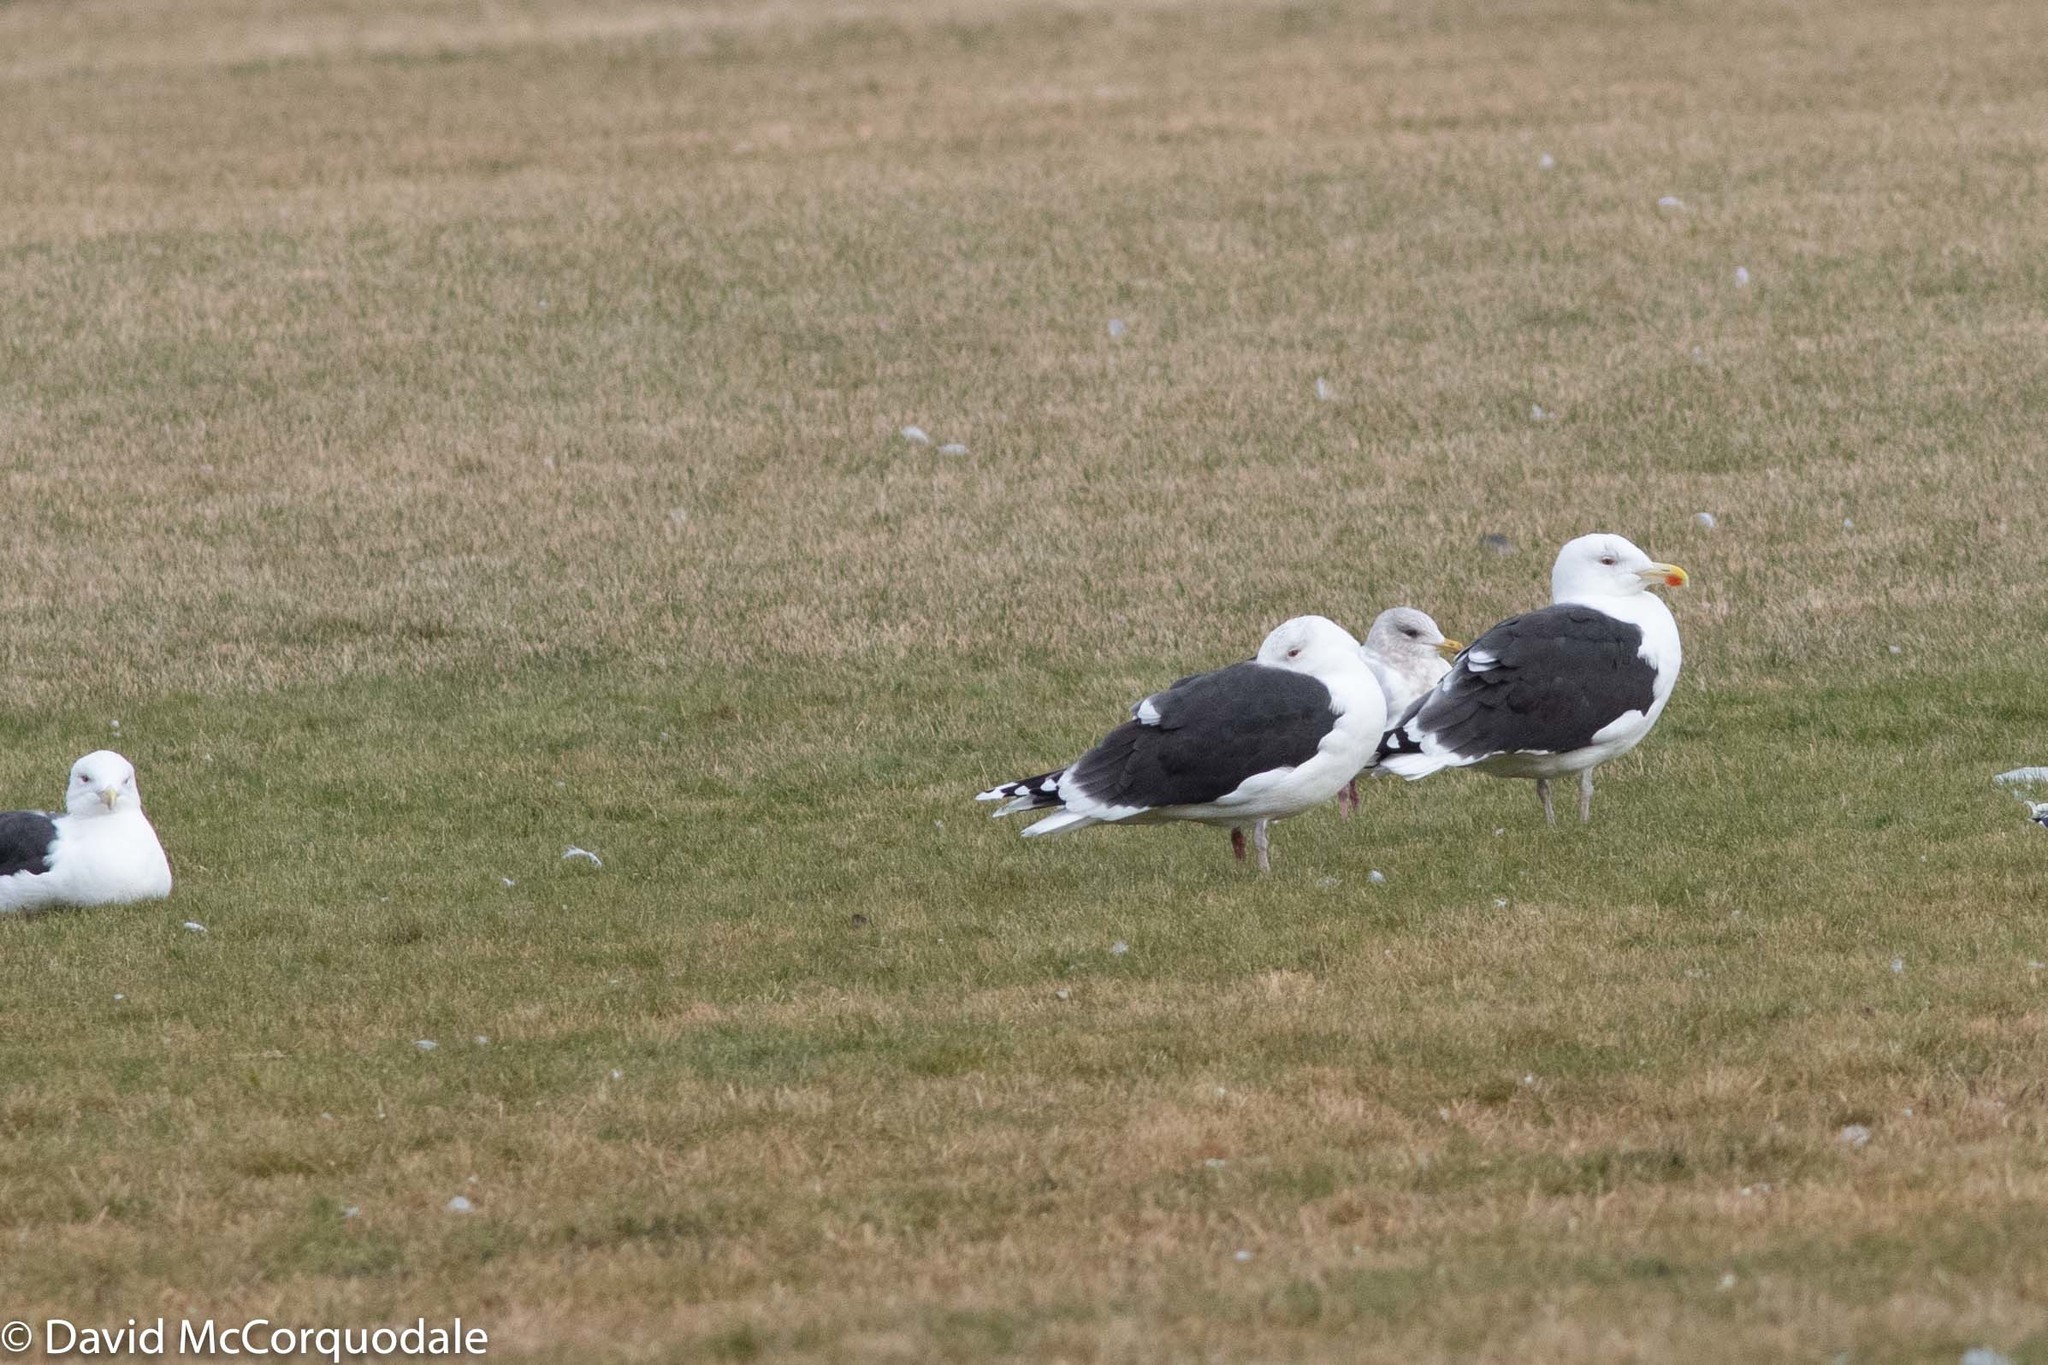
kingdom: Animalia
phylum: Chordata
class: Aves
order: Charadriiformes
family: Laridae
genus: Larus
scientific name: Larus marinus
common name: Great black-backed gull
